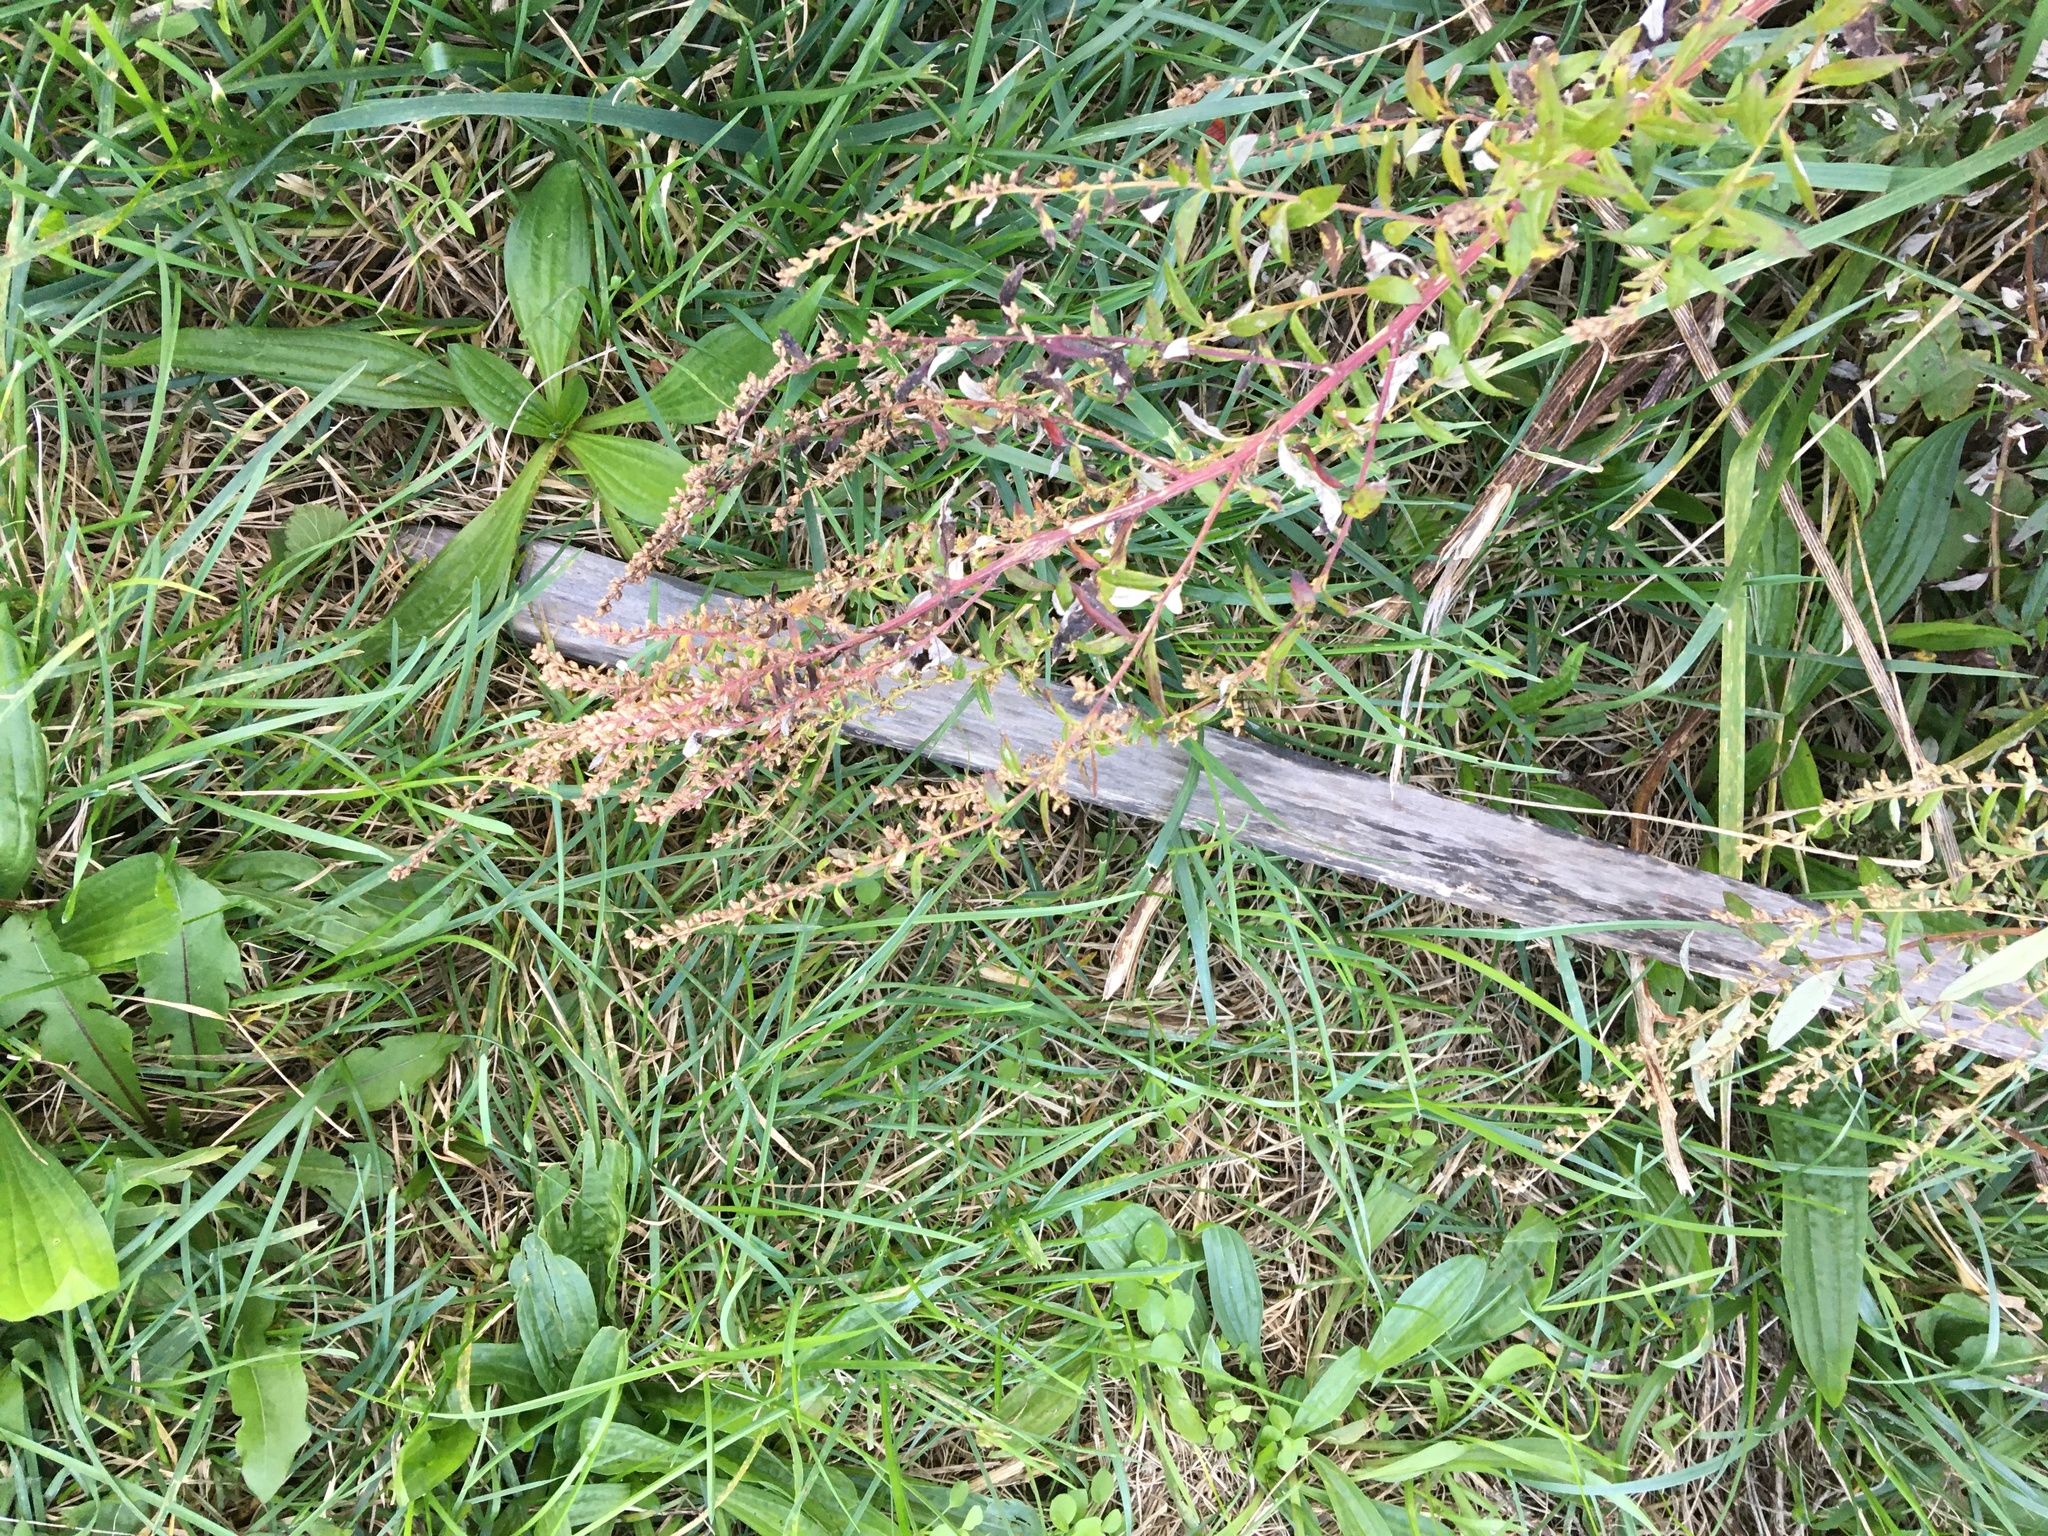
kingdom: Plantae
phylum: Tracheophyta
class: Magnoliopsida
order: Asterales
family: Asteraceae
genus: Artemisia
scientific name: Artemisia vulgaris
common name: Mugwort
